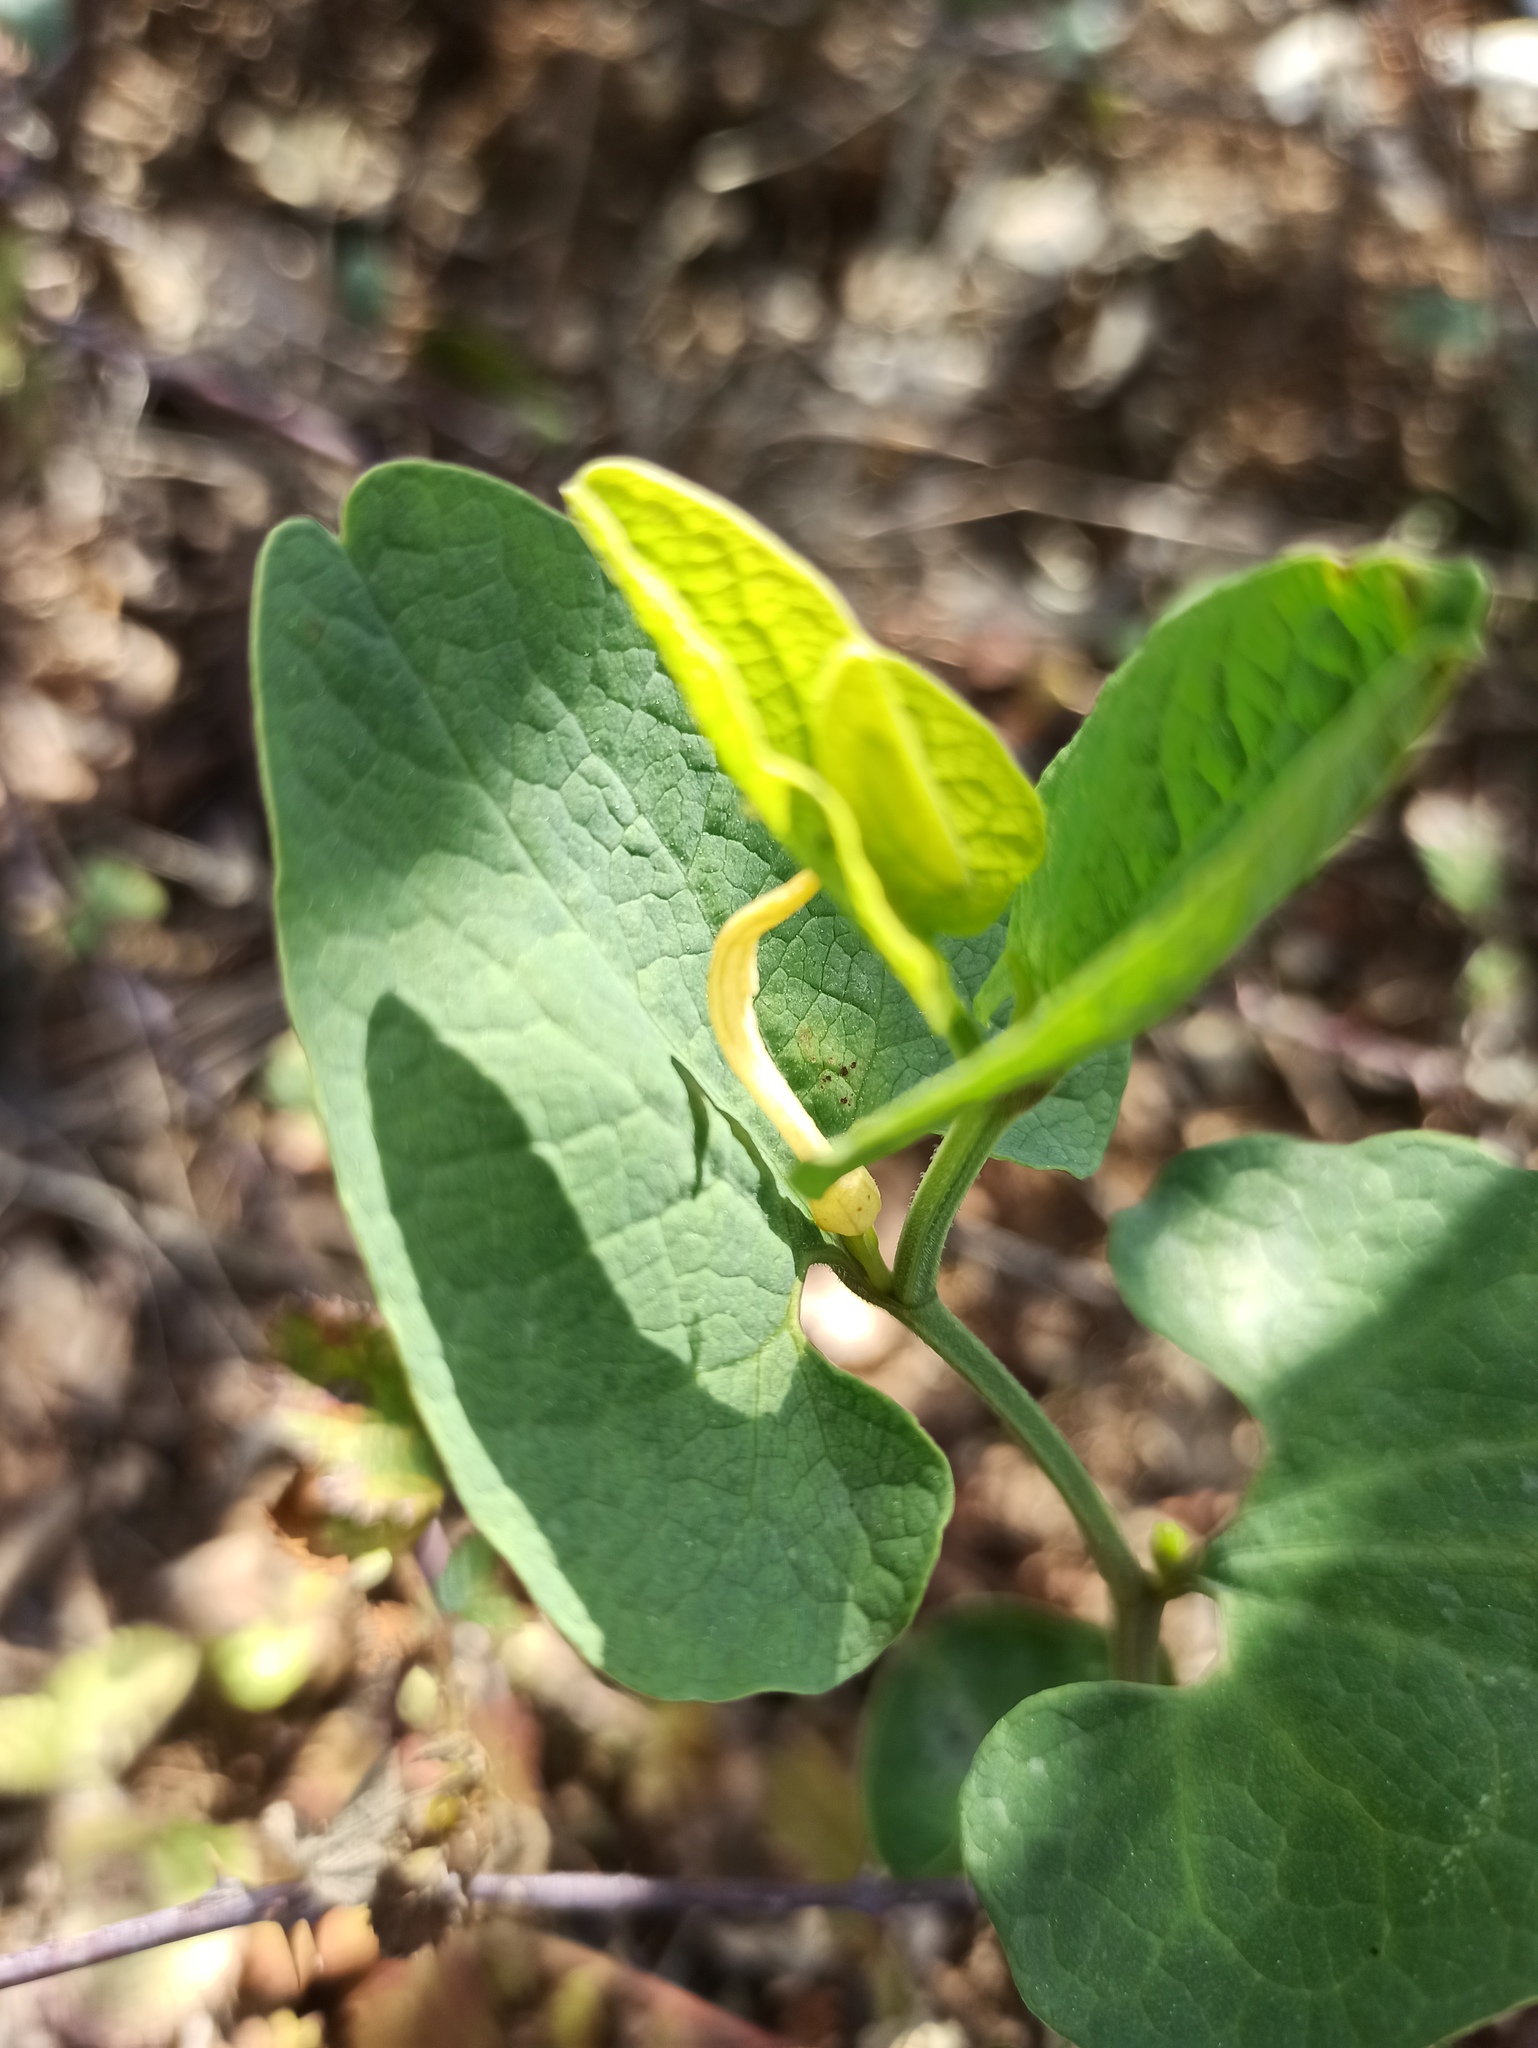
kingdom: Plantae
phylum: Tracheophyta
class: Magnoliopsida
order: Piperales
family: Aristolochiaceae
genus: Aristolochia
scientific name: Aristolochia paucinervis
